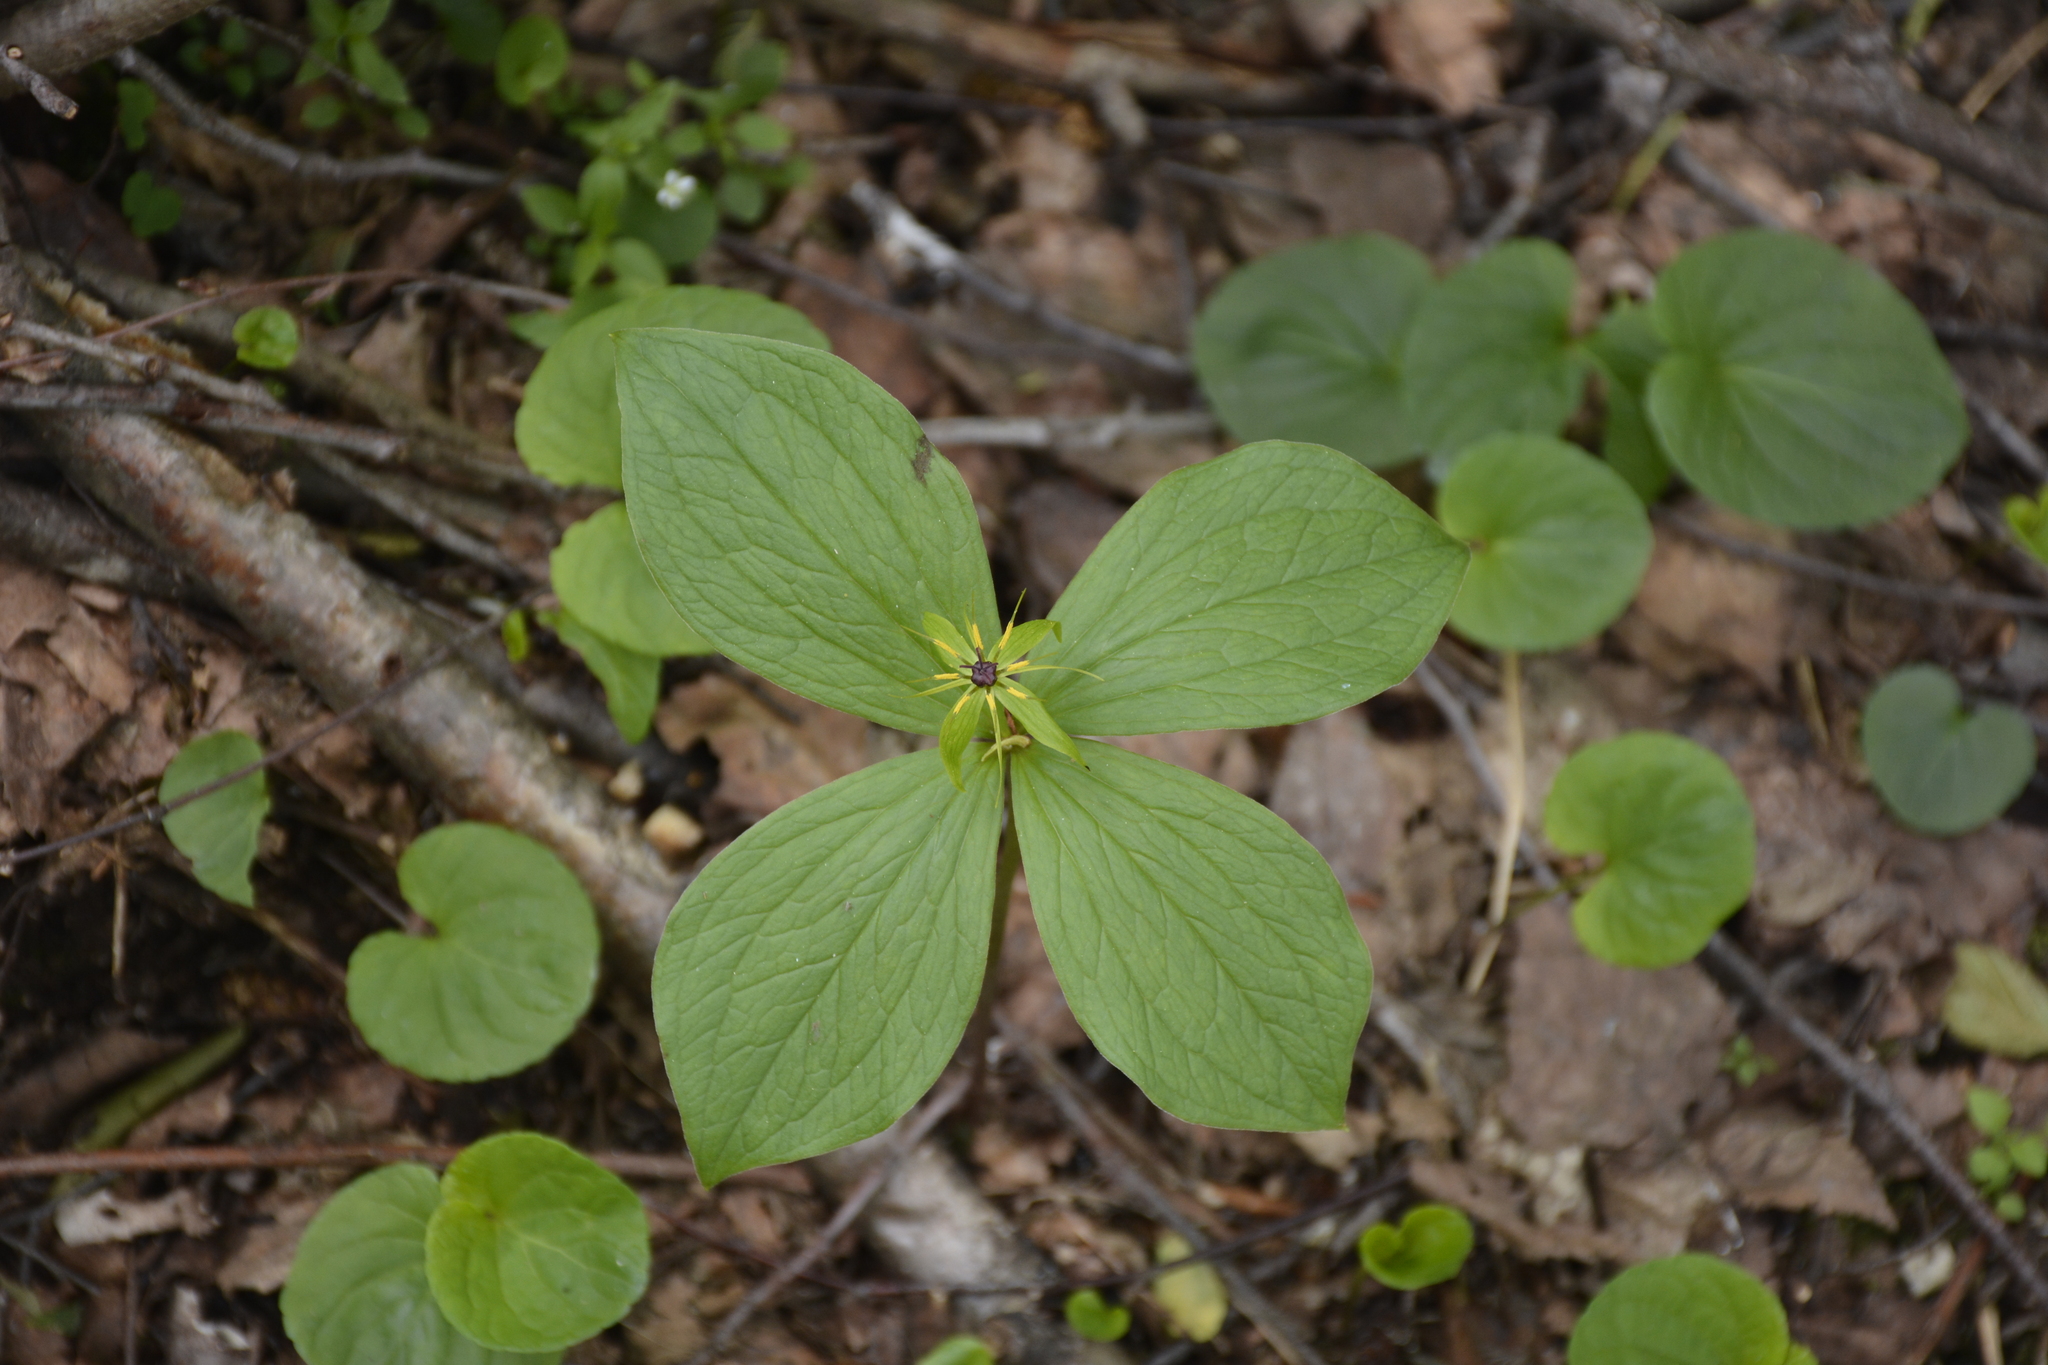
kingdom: Plantae
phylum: Tracheophyta
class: Liliopsida
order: Liliales
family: Melanthiaceae
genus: Paris
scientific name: Paris quadrifolia
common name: Herb-paris
